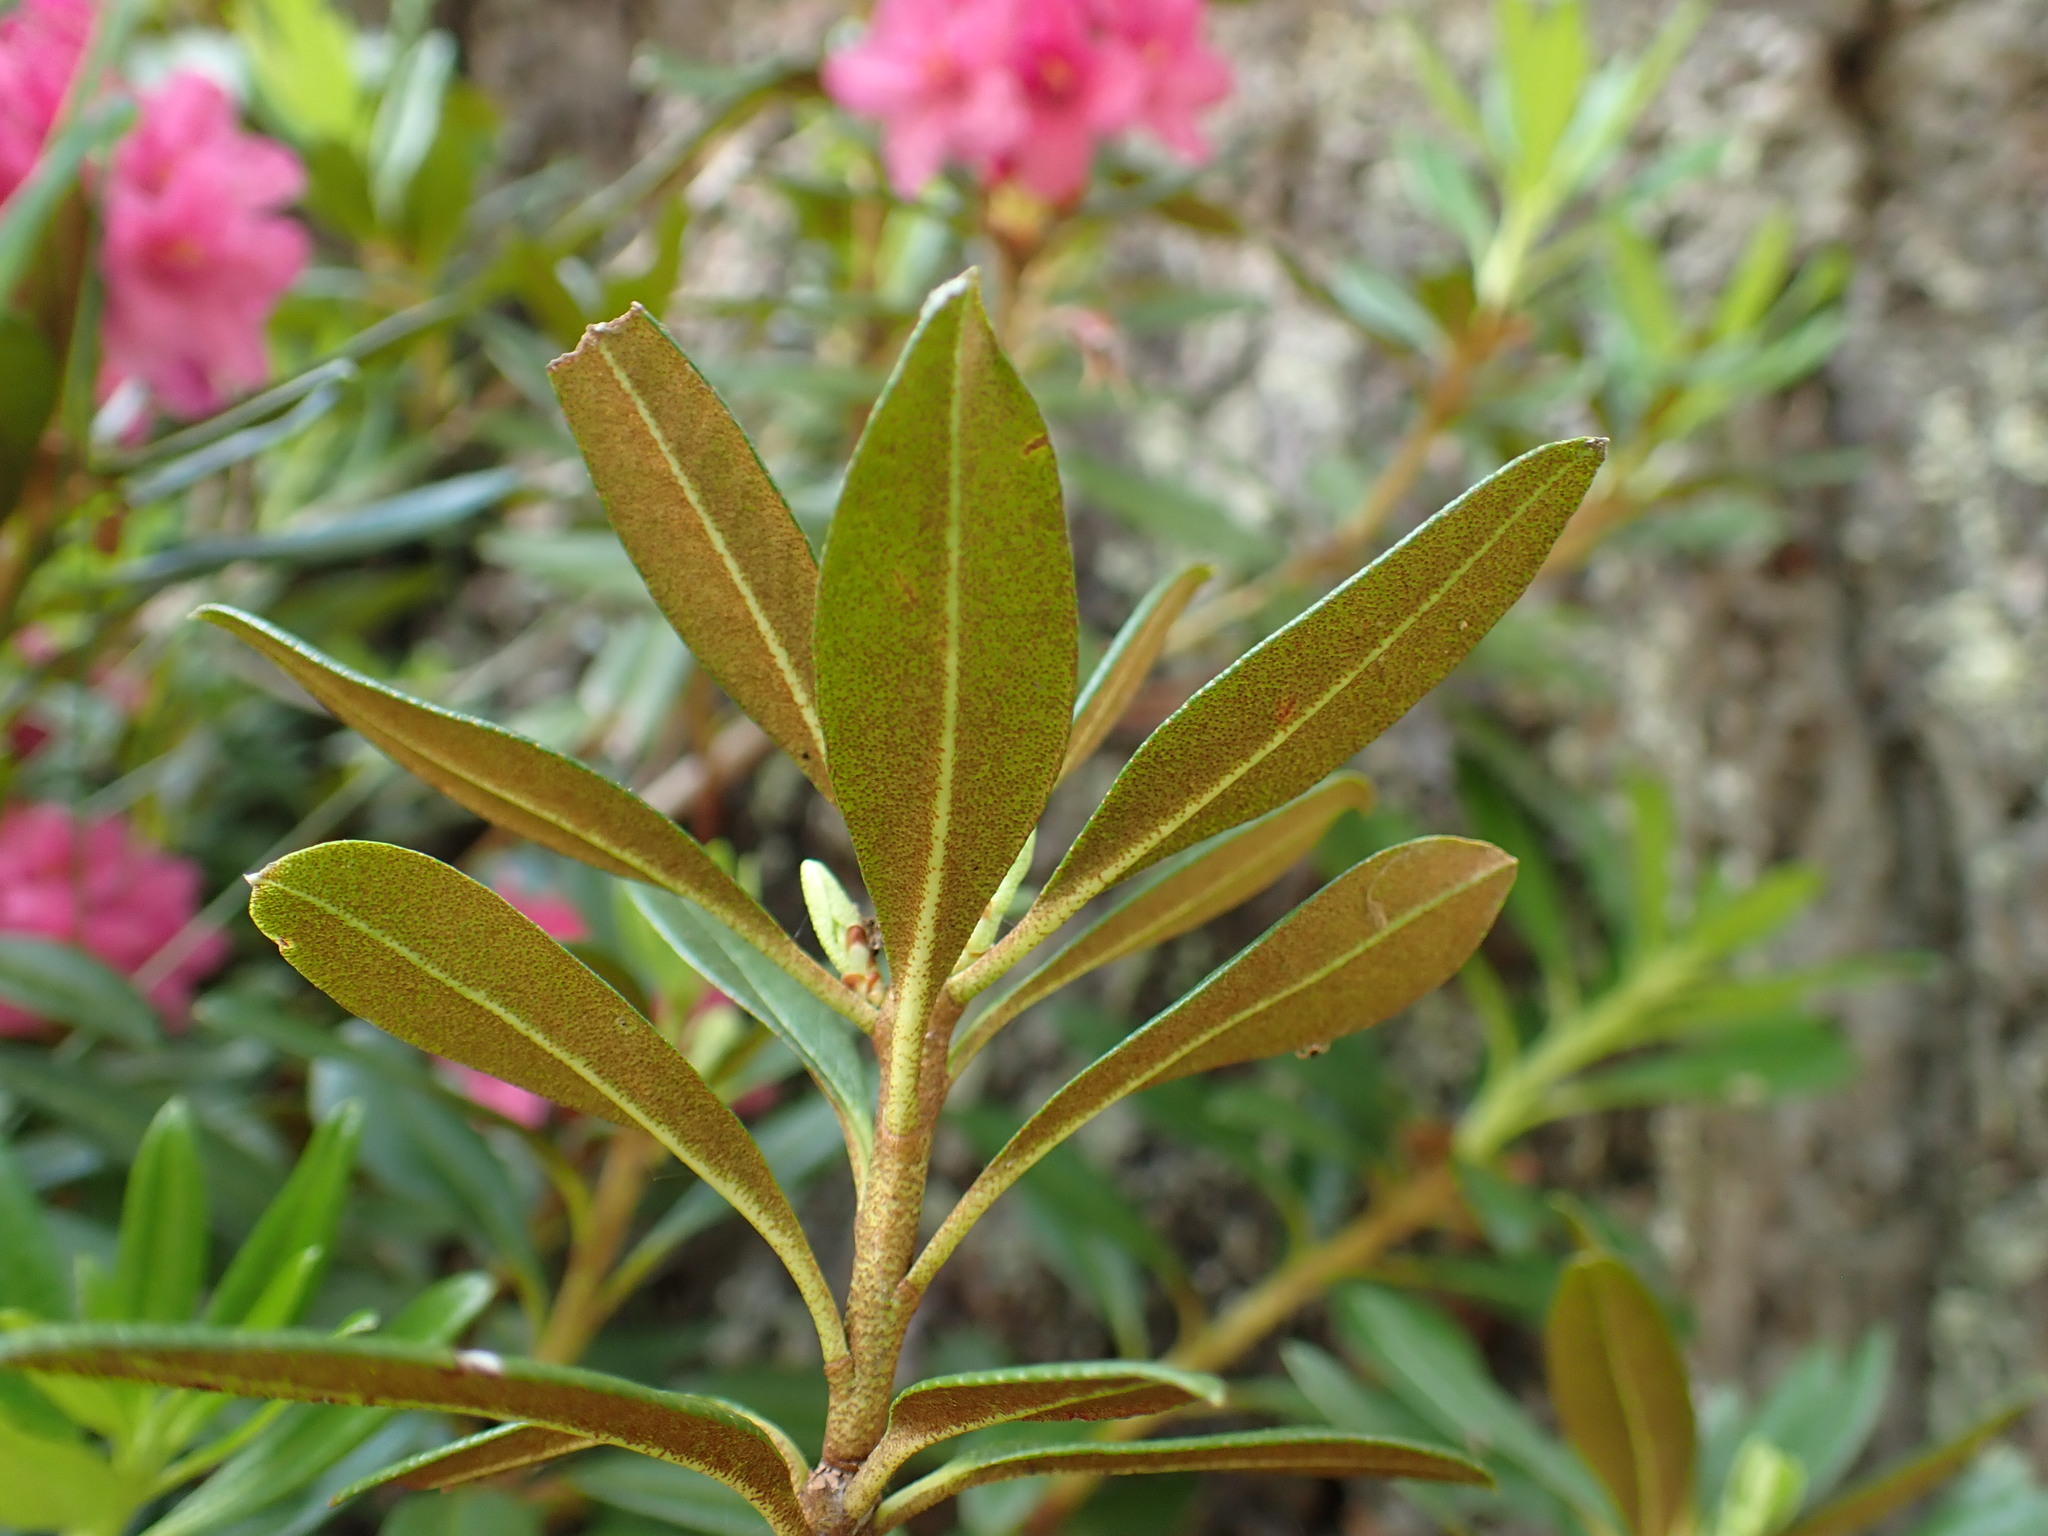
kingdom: Plantae
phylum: Tracheophyta
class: Magnoliopsida
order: Ericales
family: Ericaceae
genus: Rhododendron
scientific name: Rhododendron ferrugineum
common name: Alpenrose
